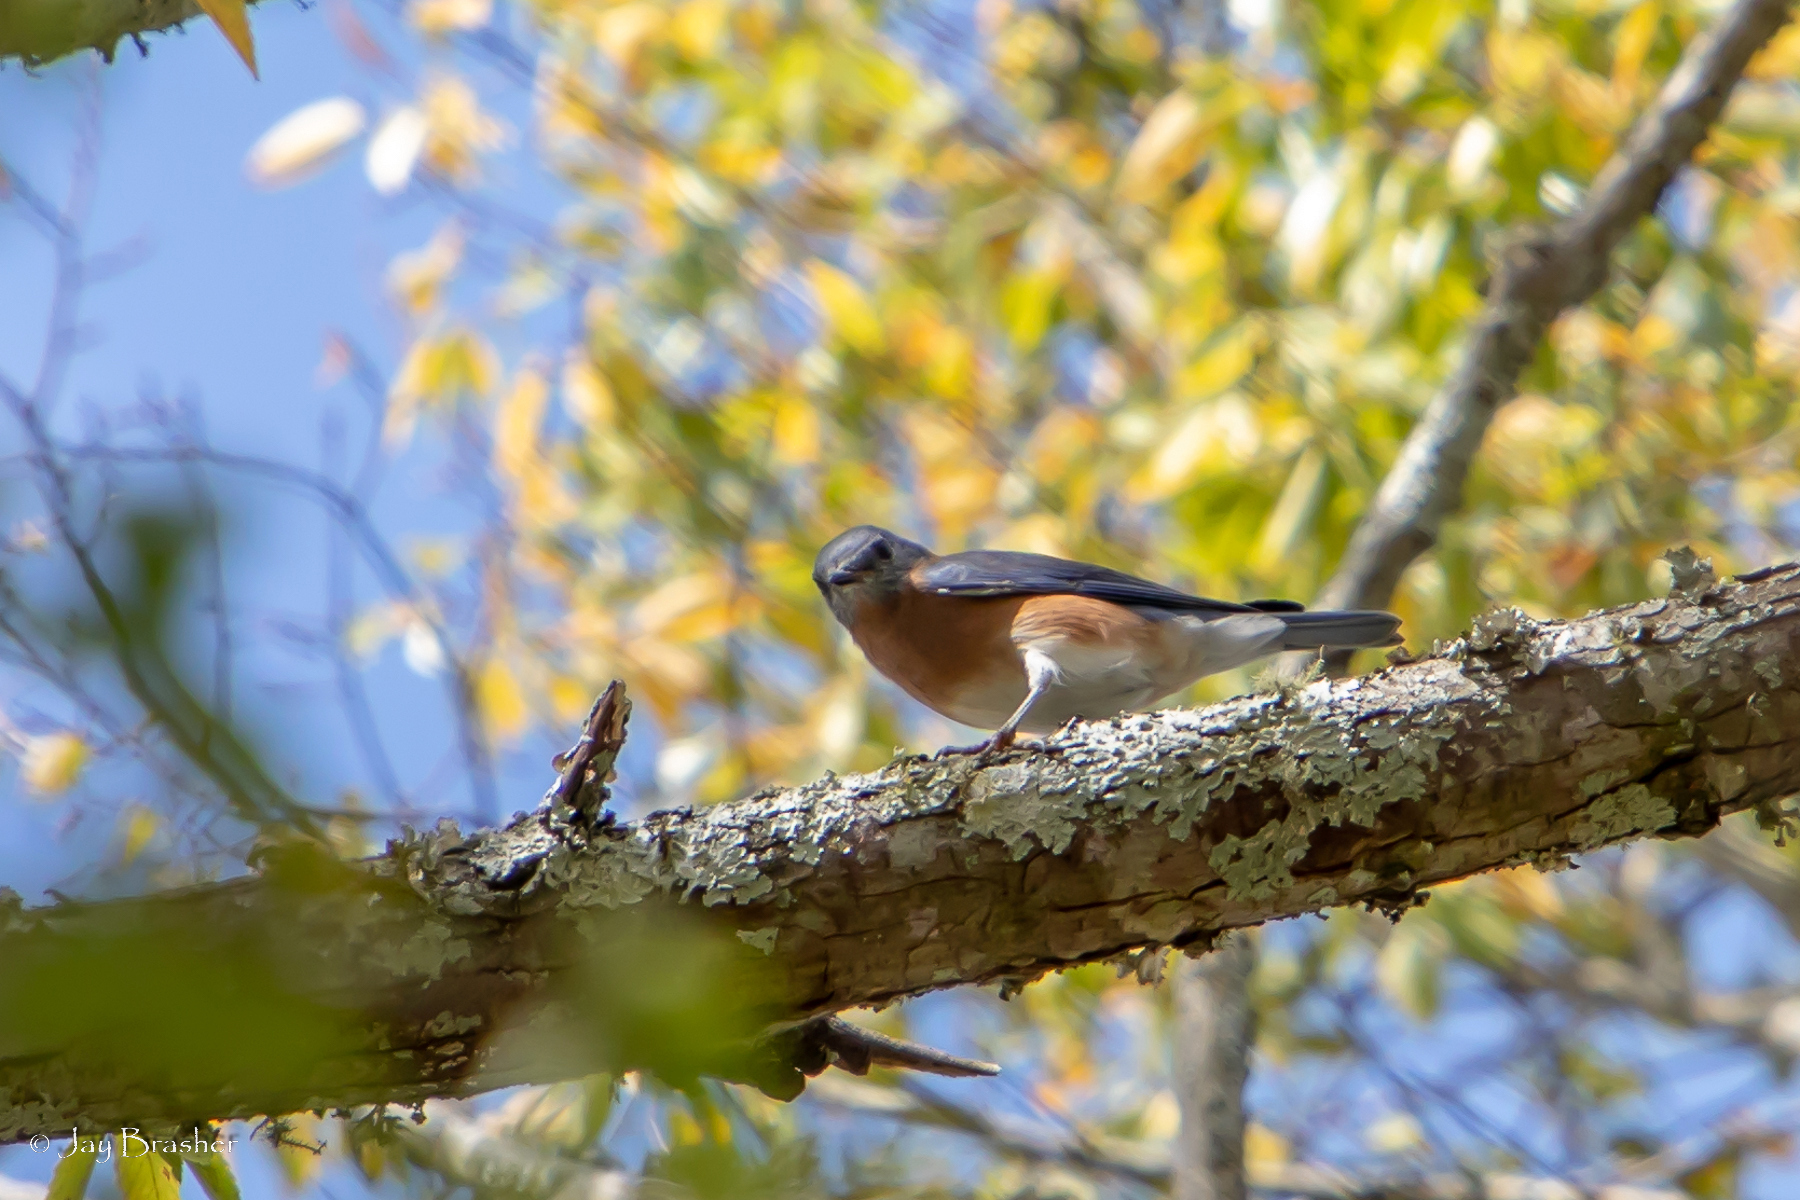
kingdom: Animalia
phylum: Chordata
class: Aves
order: Passeriformes
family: Turdidae
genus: Sialia
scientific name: Sialia sialis
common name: Eastern bluebird
